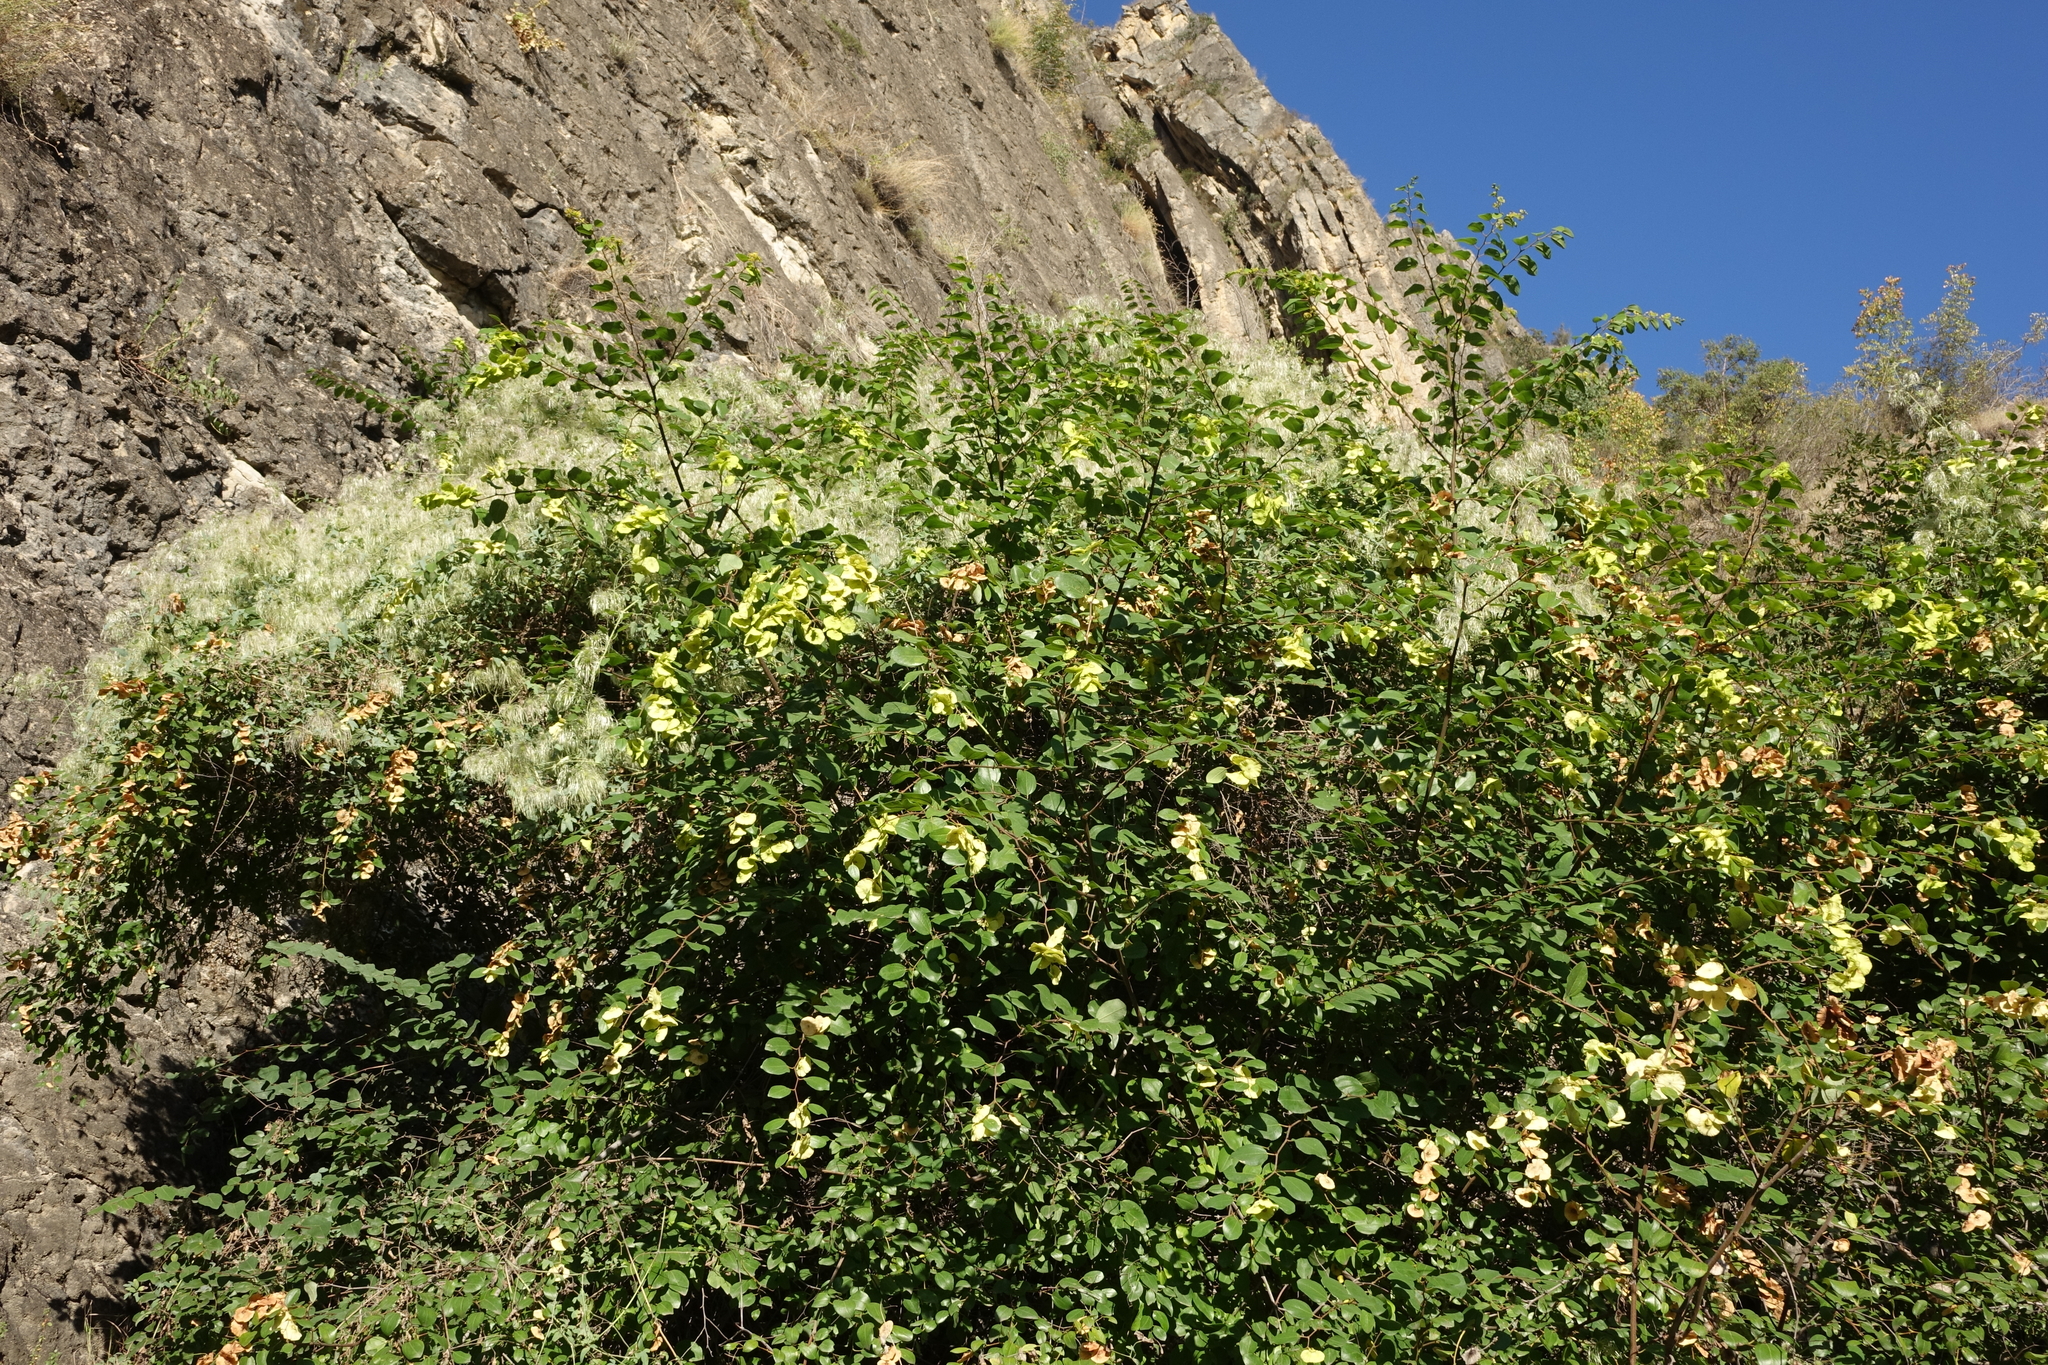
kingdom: Plantae
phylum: Tracheophyta
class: Magnoliopsida
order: Rosales
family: Rhamnaceae
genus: Paliurus
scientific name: Paliurus spina-christi
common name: Jeruselem thorn
